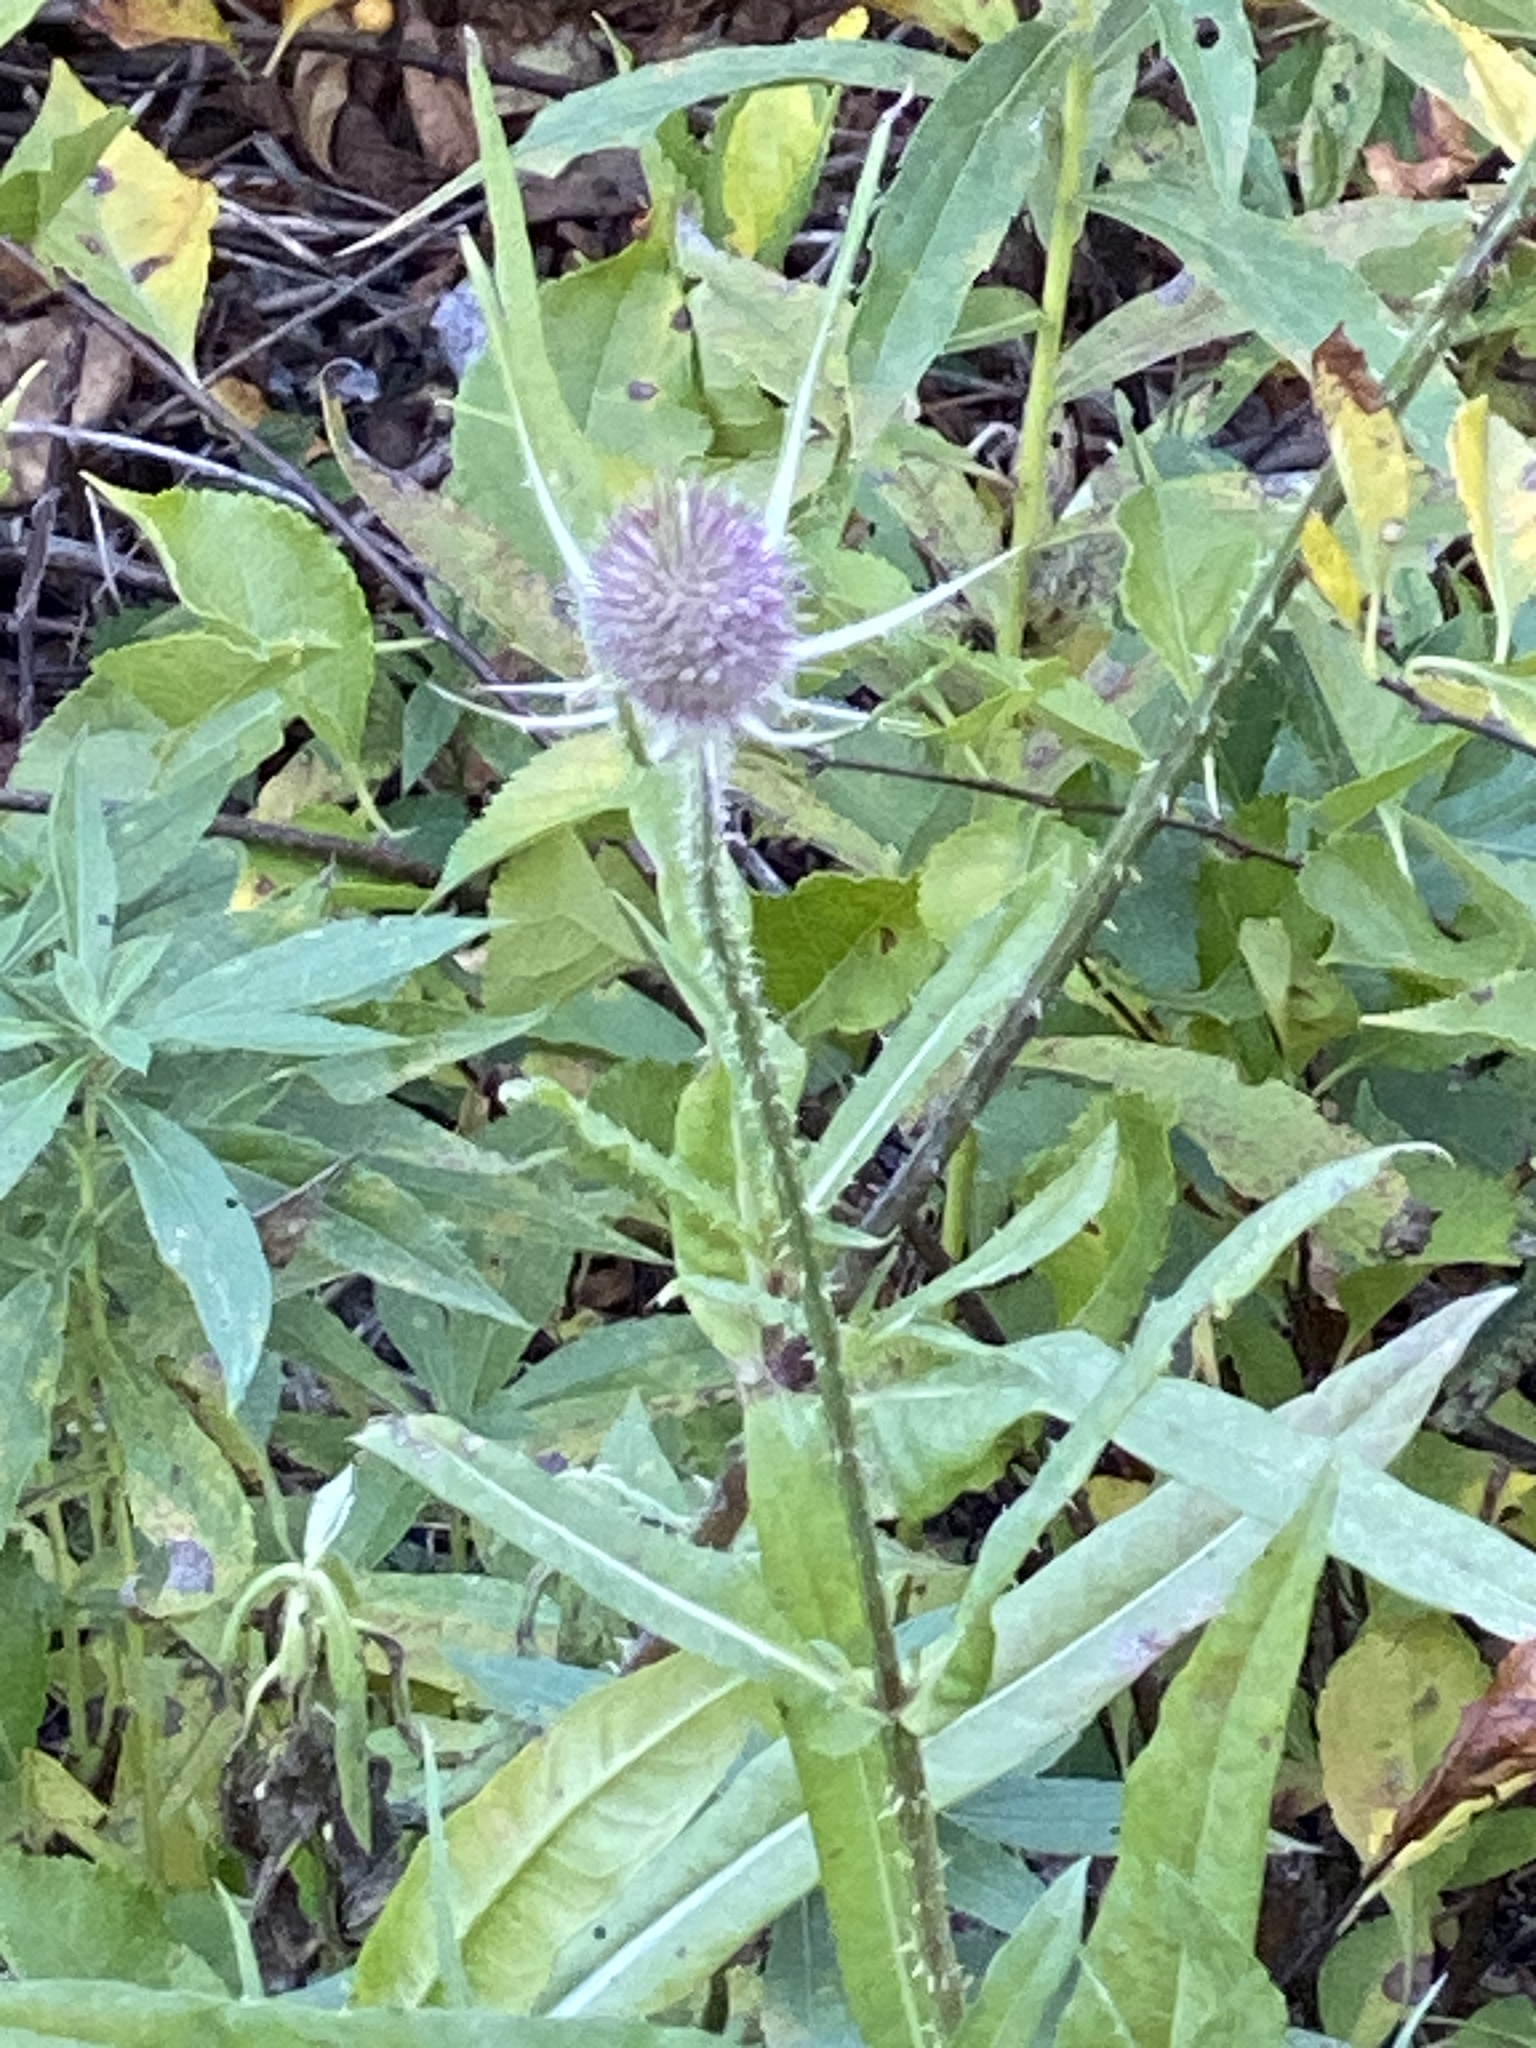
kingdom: Plantae
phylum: Tracheophyta
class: Magnoliopsida
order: Dipsacales
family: Caprifoliaceae
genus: Dipsacus
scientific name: Dipsacus fullonum
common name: Teasel
